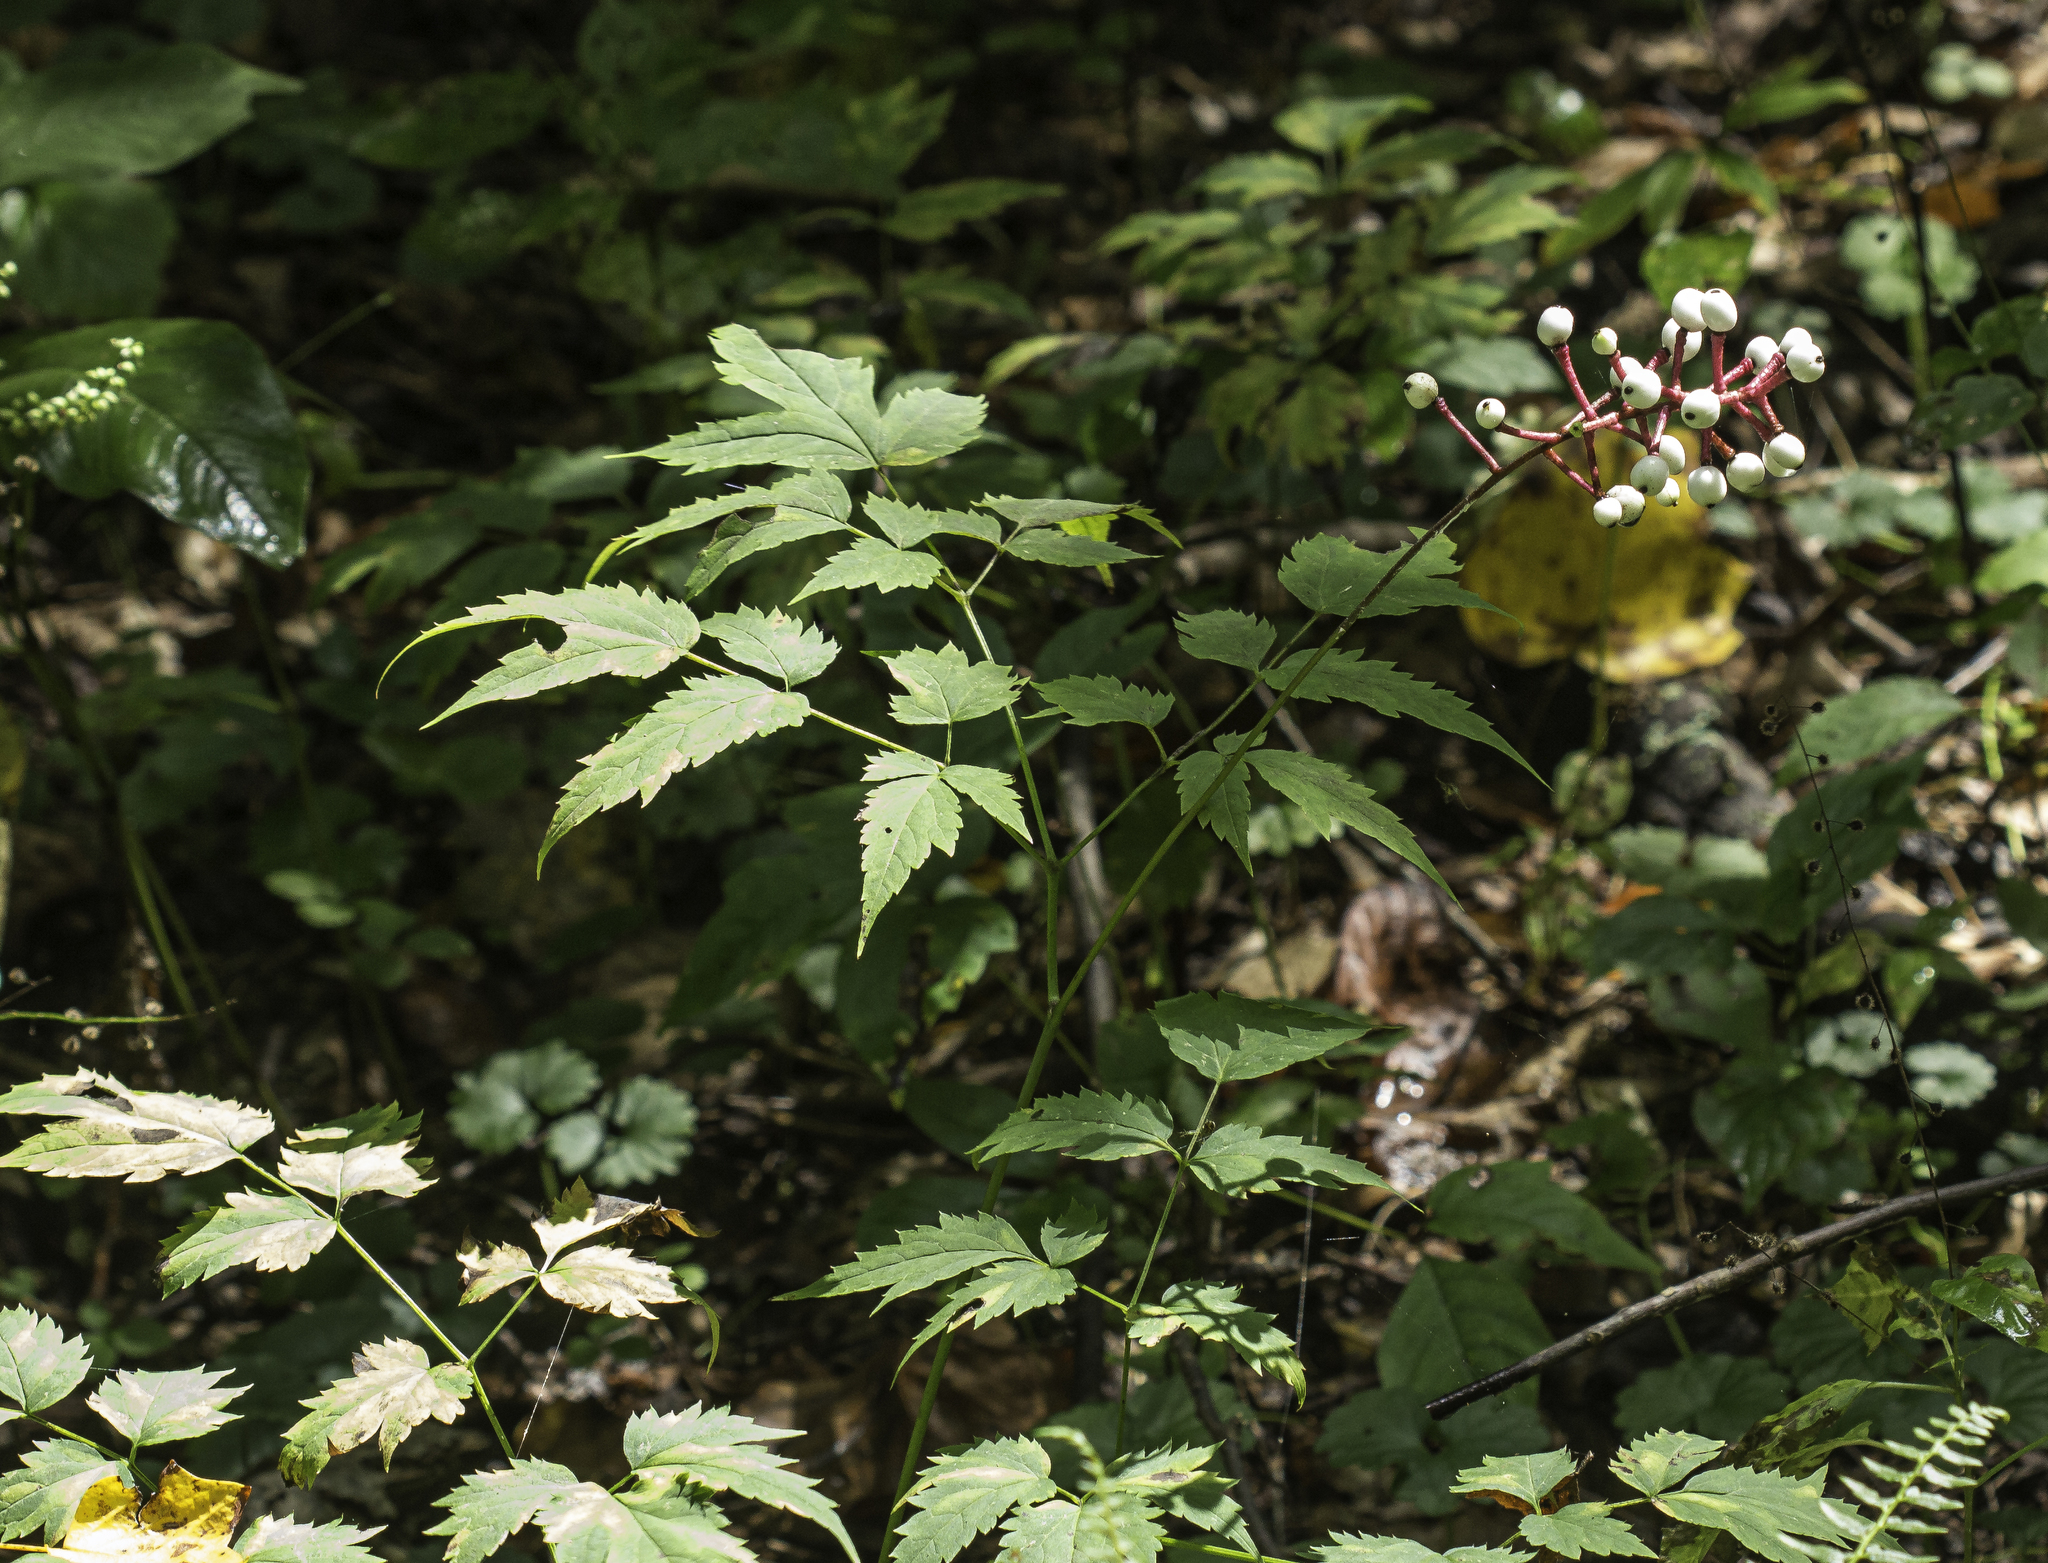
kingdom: Plantae
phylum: Tracheophyta
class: Magnoliopsida
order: Ranunculales
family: Ranunculaceae
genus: Actaea
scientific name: Actaea pachypoda
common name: Doll's-eyes
